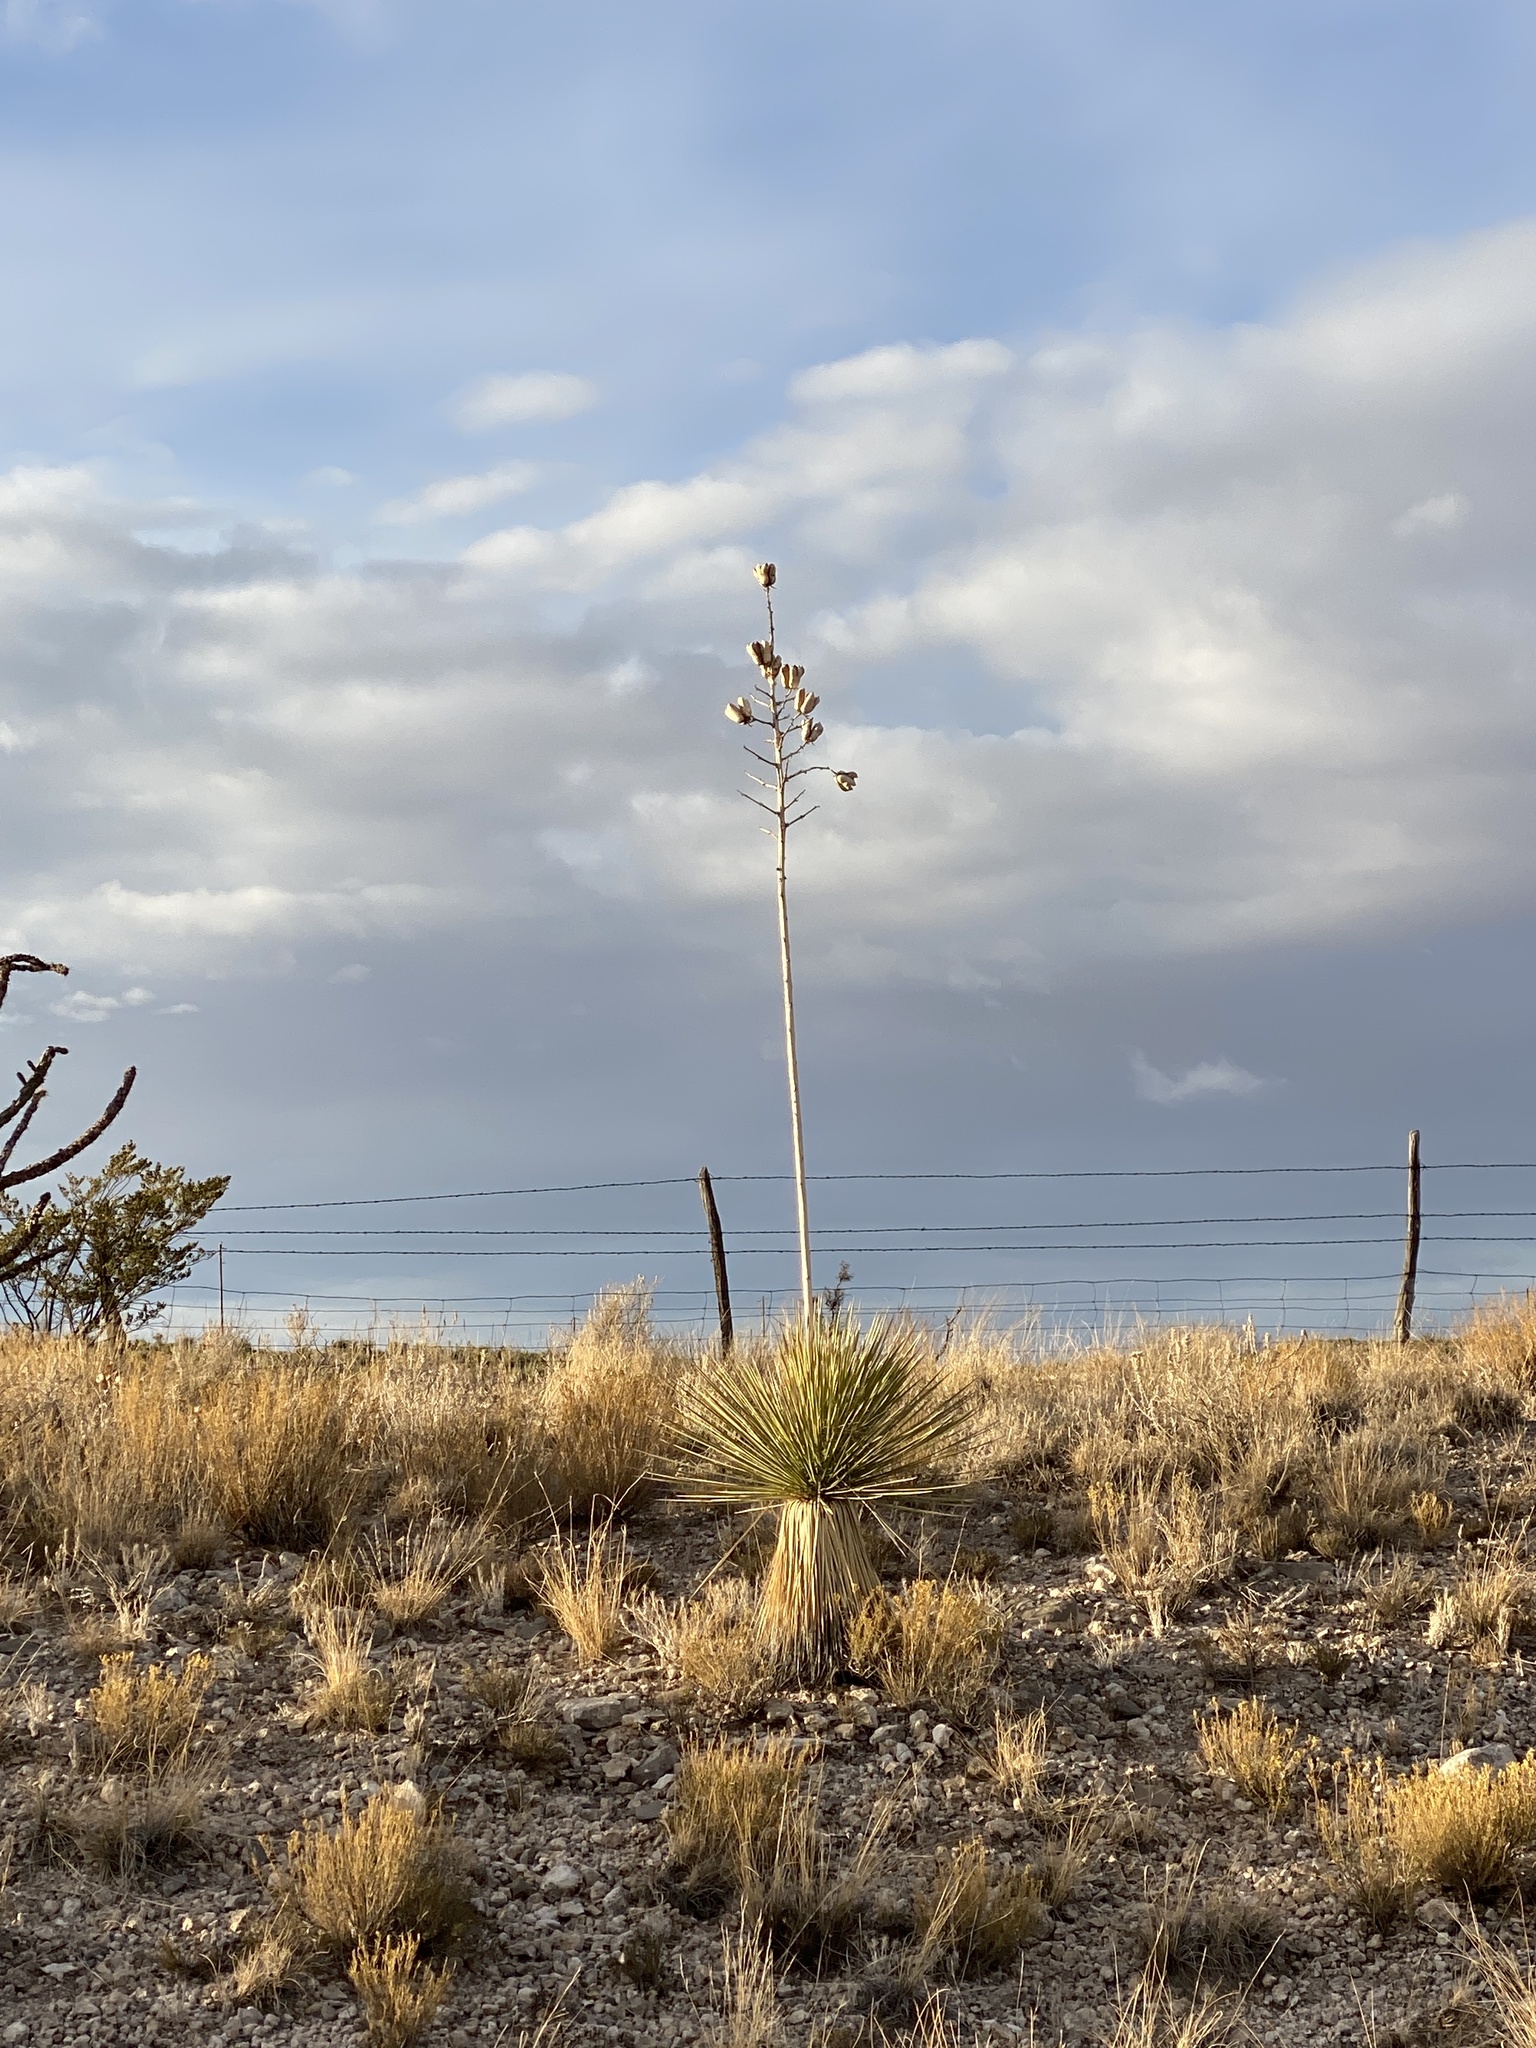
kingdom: Plantae
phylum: Tracheophyta
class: Liliopsida
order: Asparagales
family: Asparagaceae
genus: Yucca
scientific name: Yucca elata
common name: Palmella
